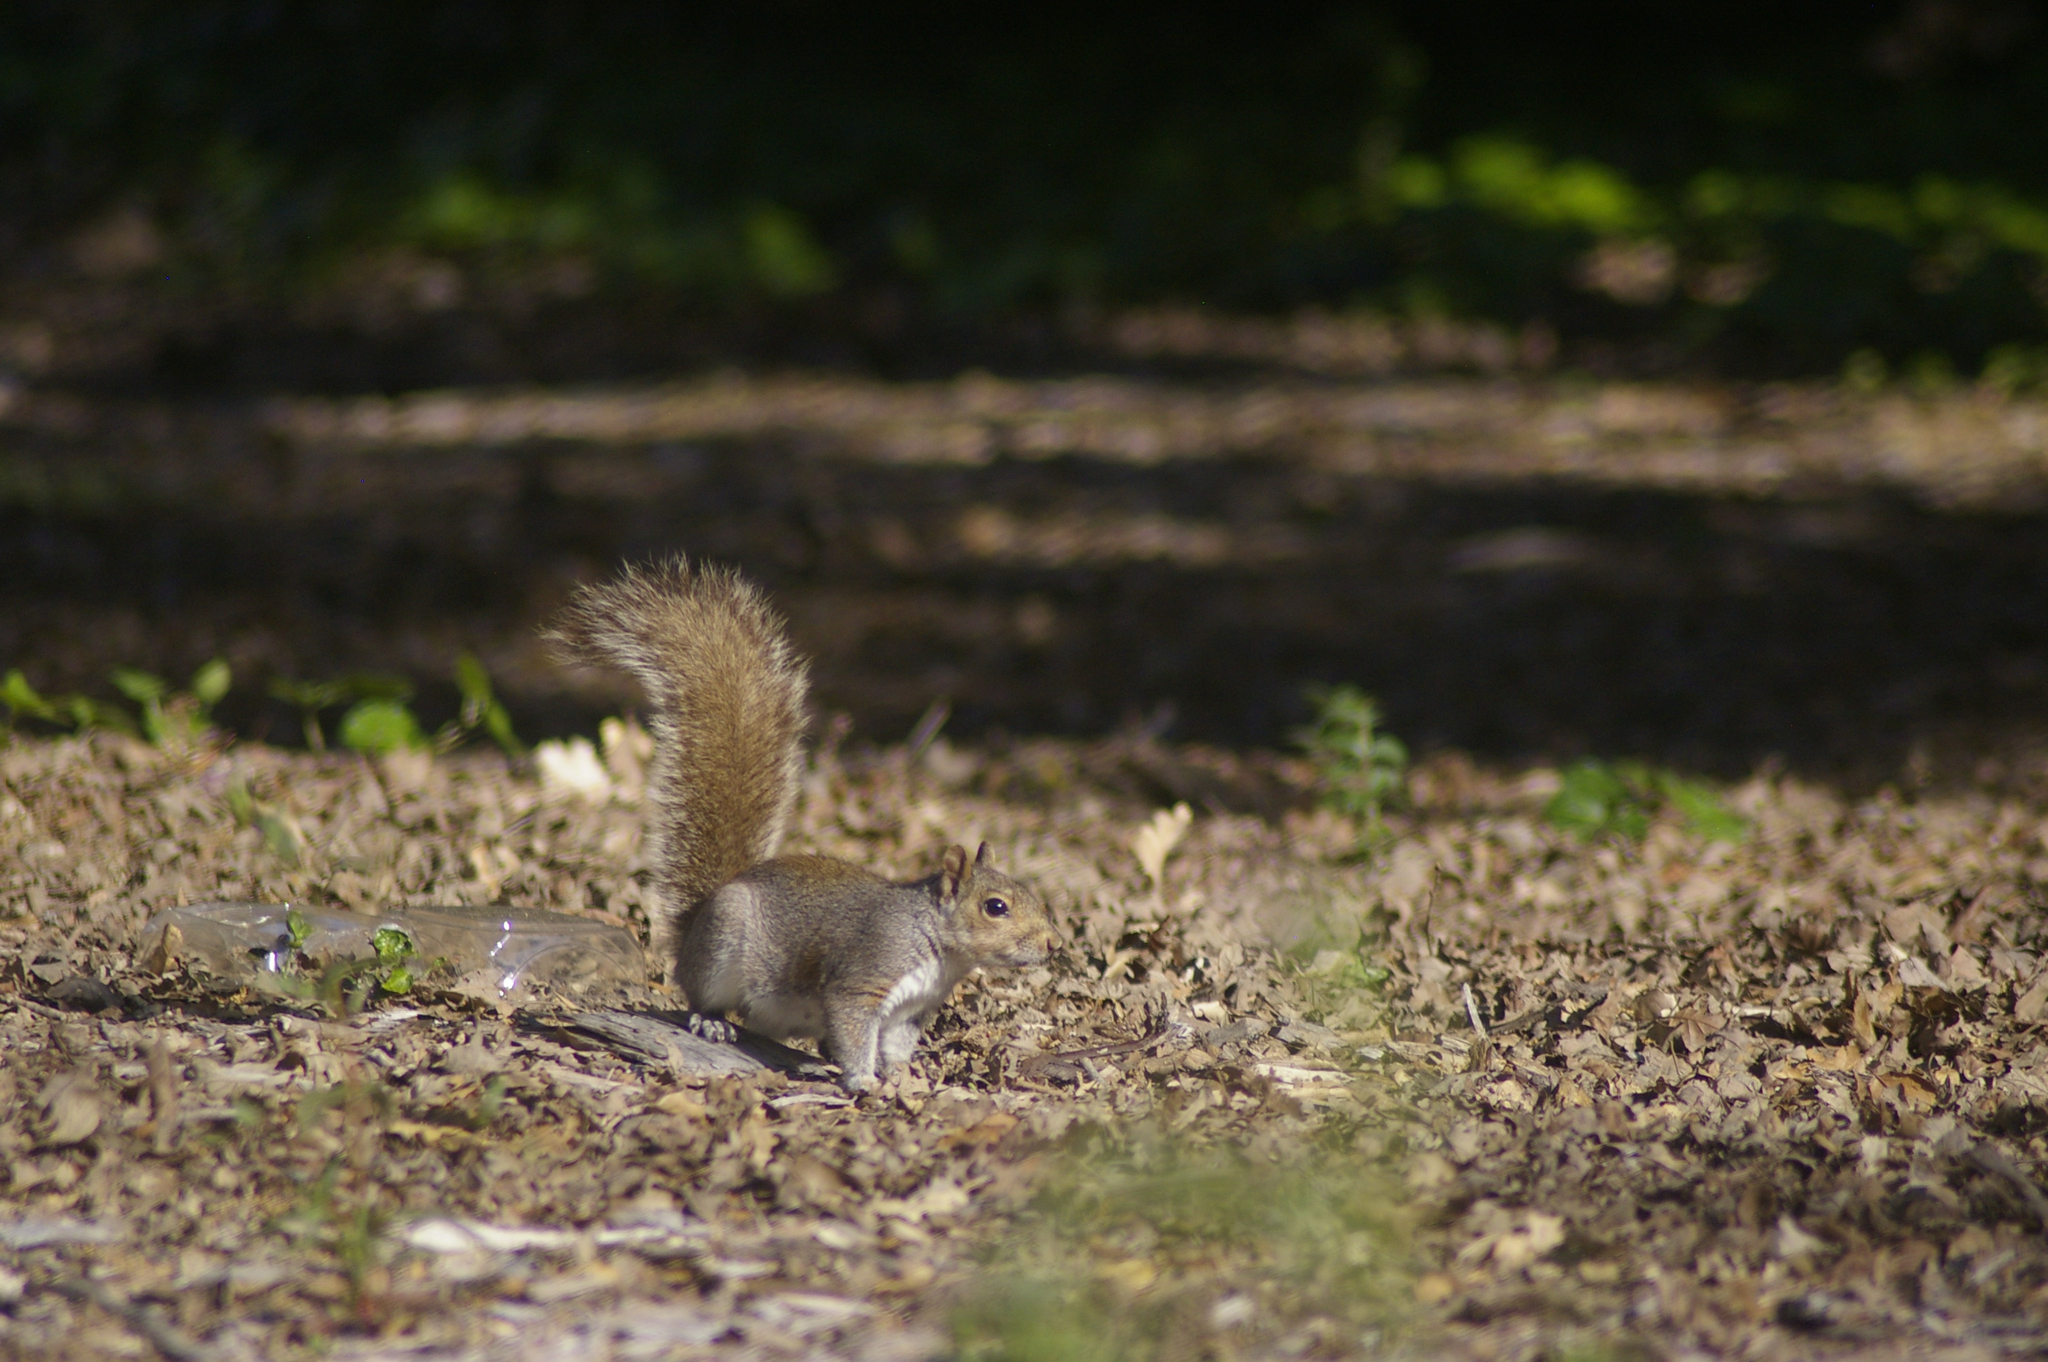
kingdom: Animalia
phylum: Chordata
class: Mammalia
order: Rodentia
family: Sciuridae
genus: Sciurus
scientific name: Sciurus carolinensis
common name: Eastern gray squirrel
